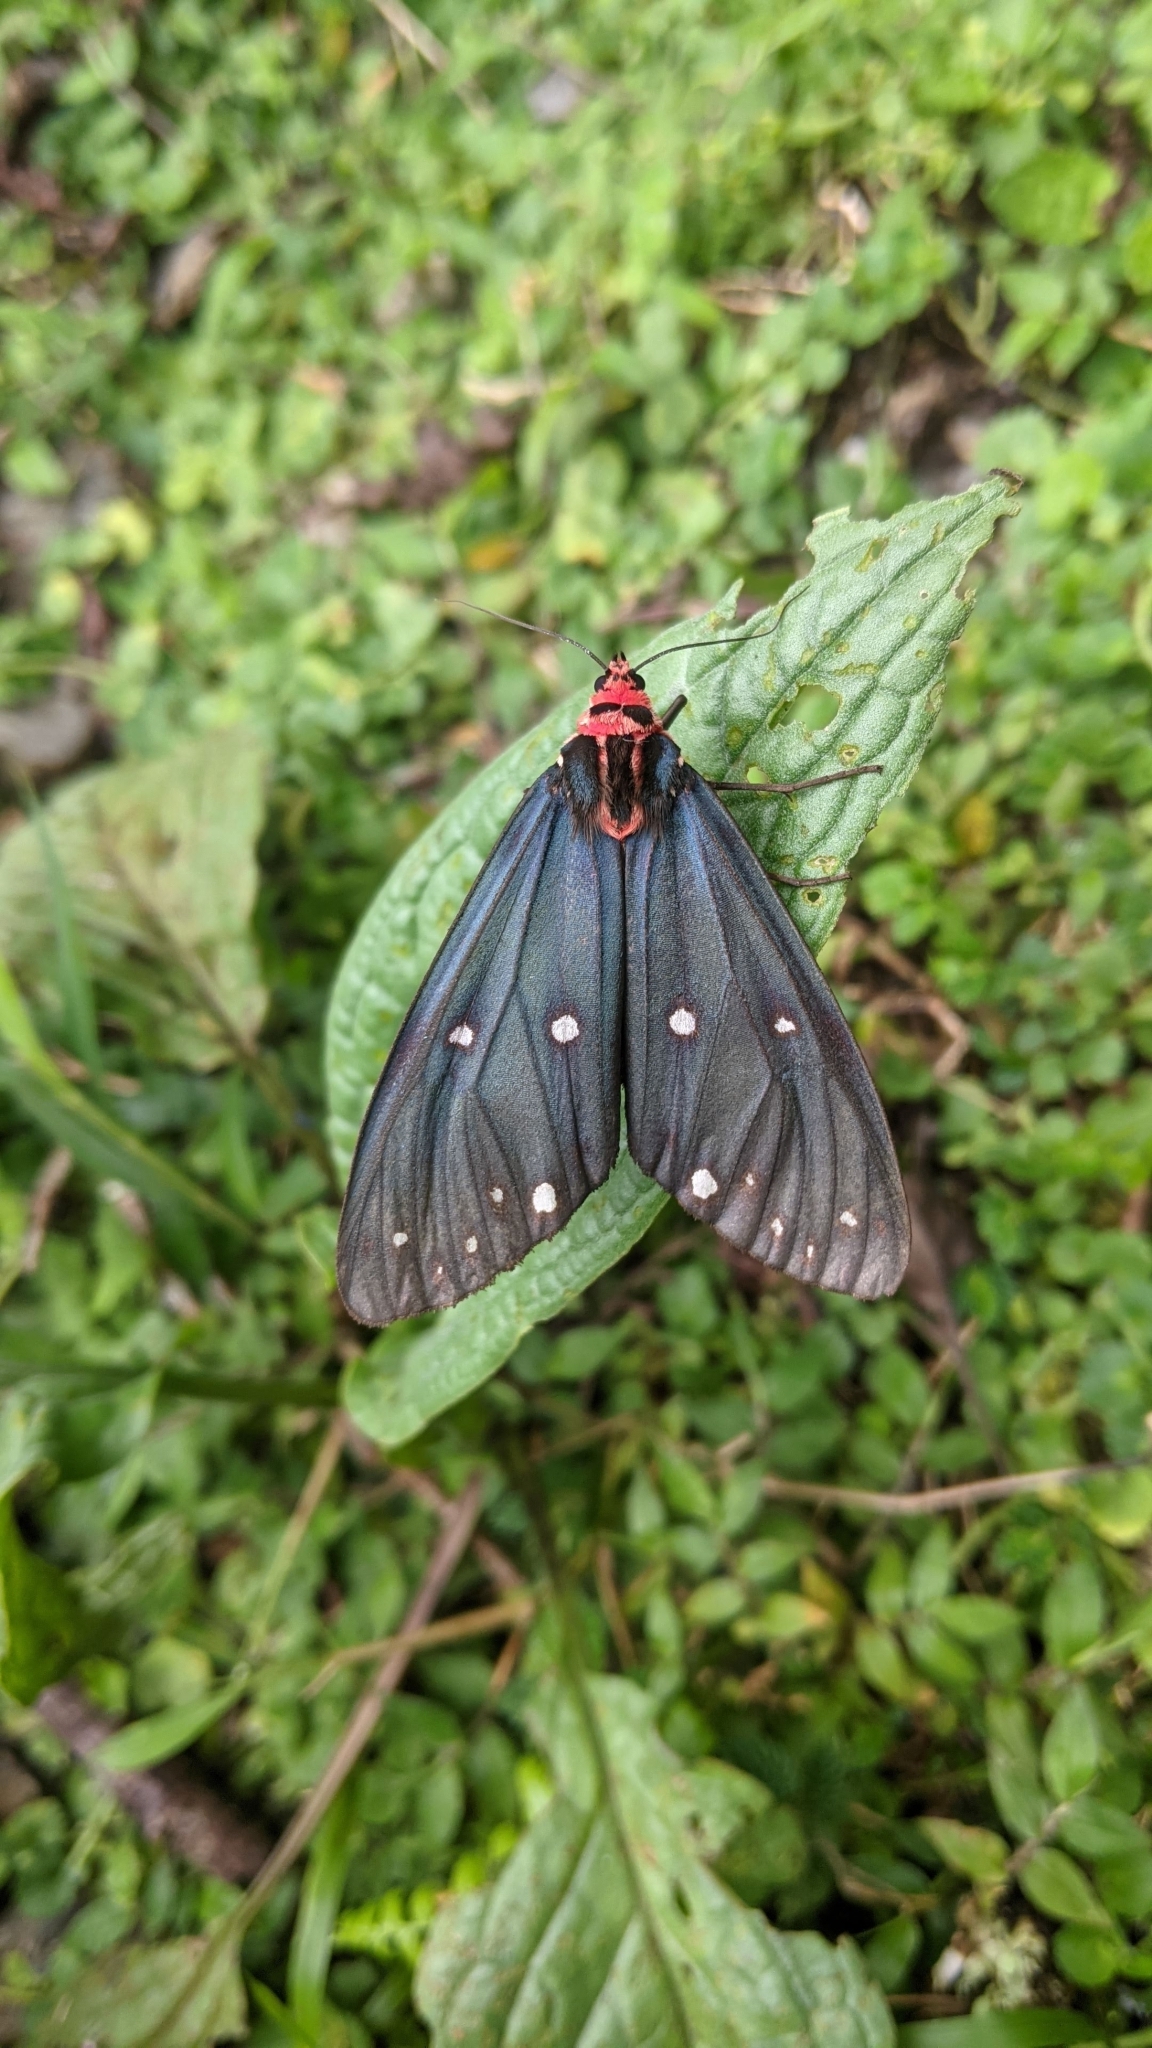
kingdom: Animalia
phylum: Arthropoda
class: Insecta
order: Lepidoptera
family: Erebidae
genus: Taicallimorpha
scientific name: Taicallimorpha albipuncta
